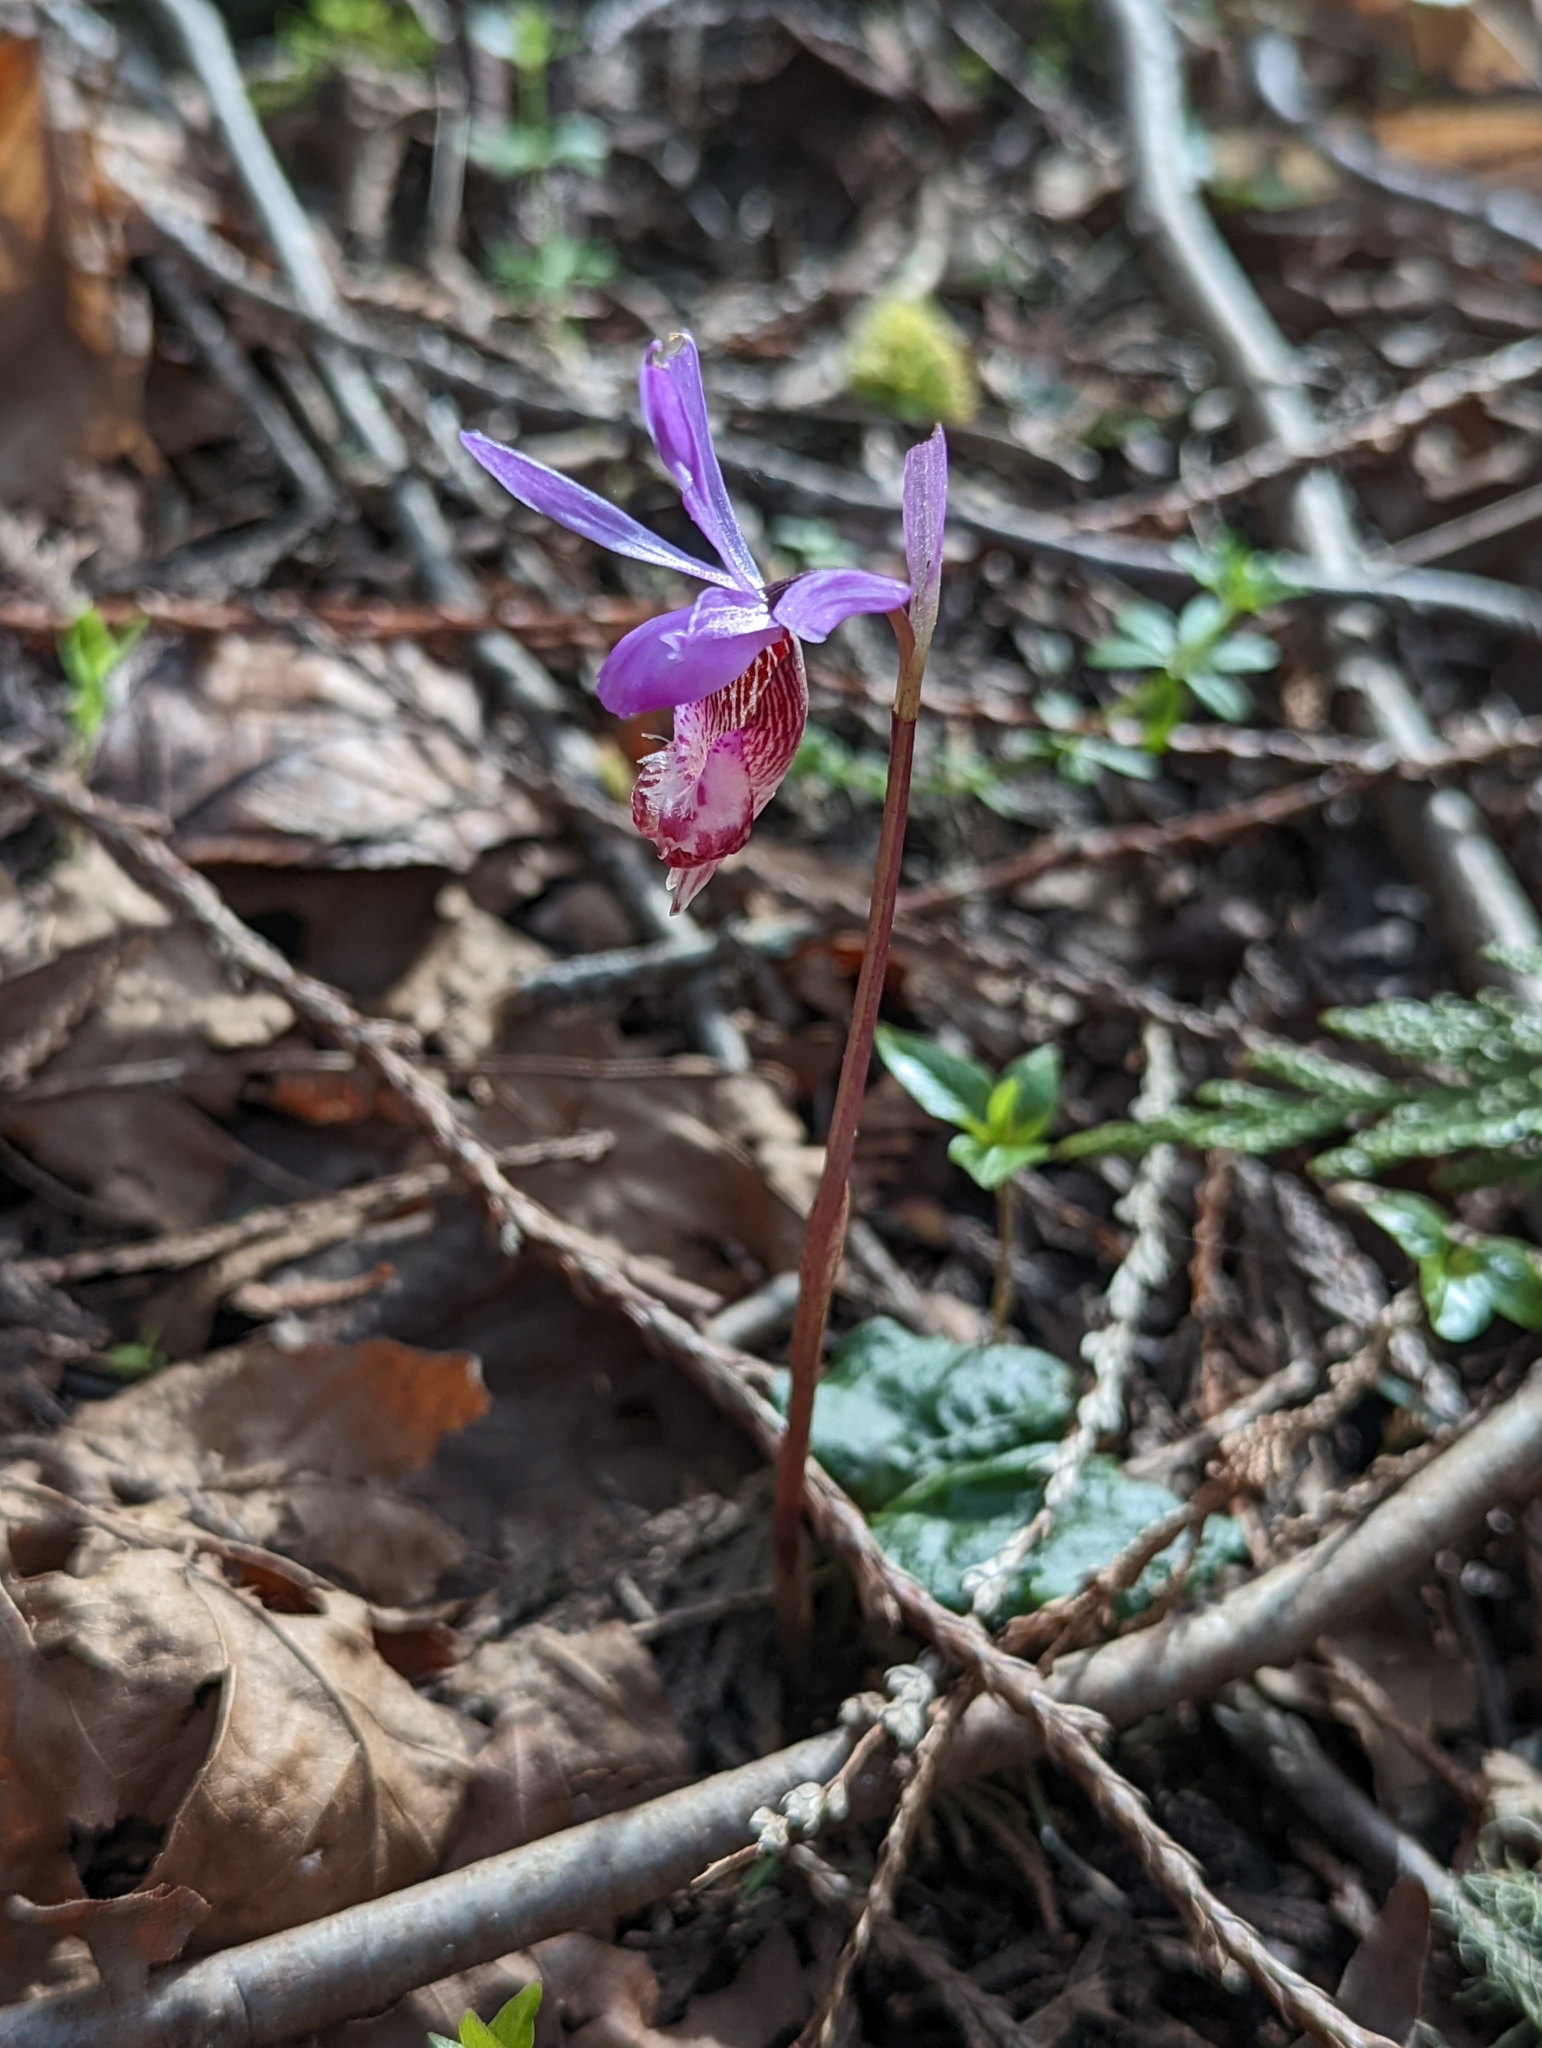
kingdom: Plantae
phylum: Tracheophyta
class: Liliopsida
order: Asparagales
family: Orchidaceae
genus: Calypso
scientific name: Calypso bulbosa
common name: Calypso
